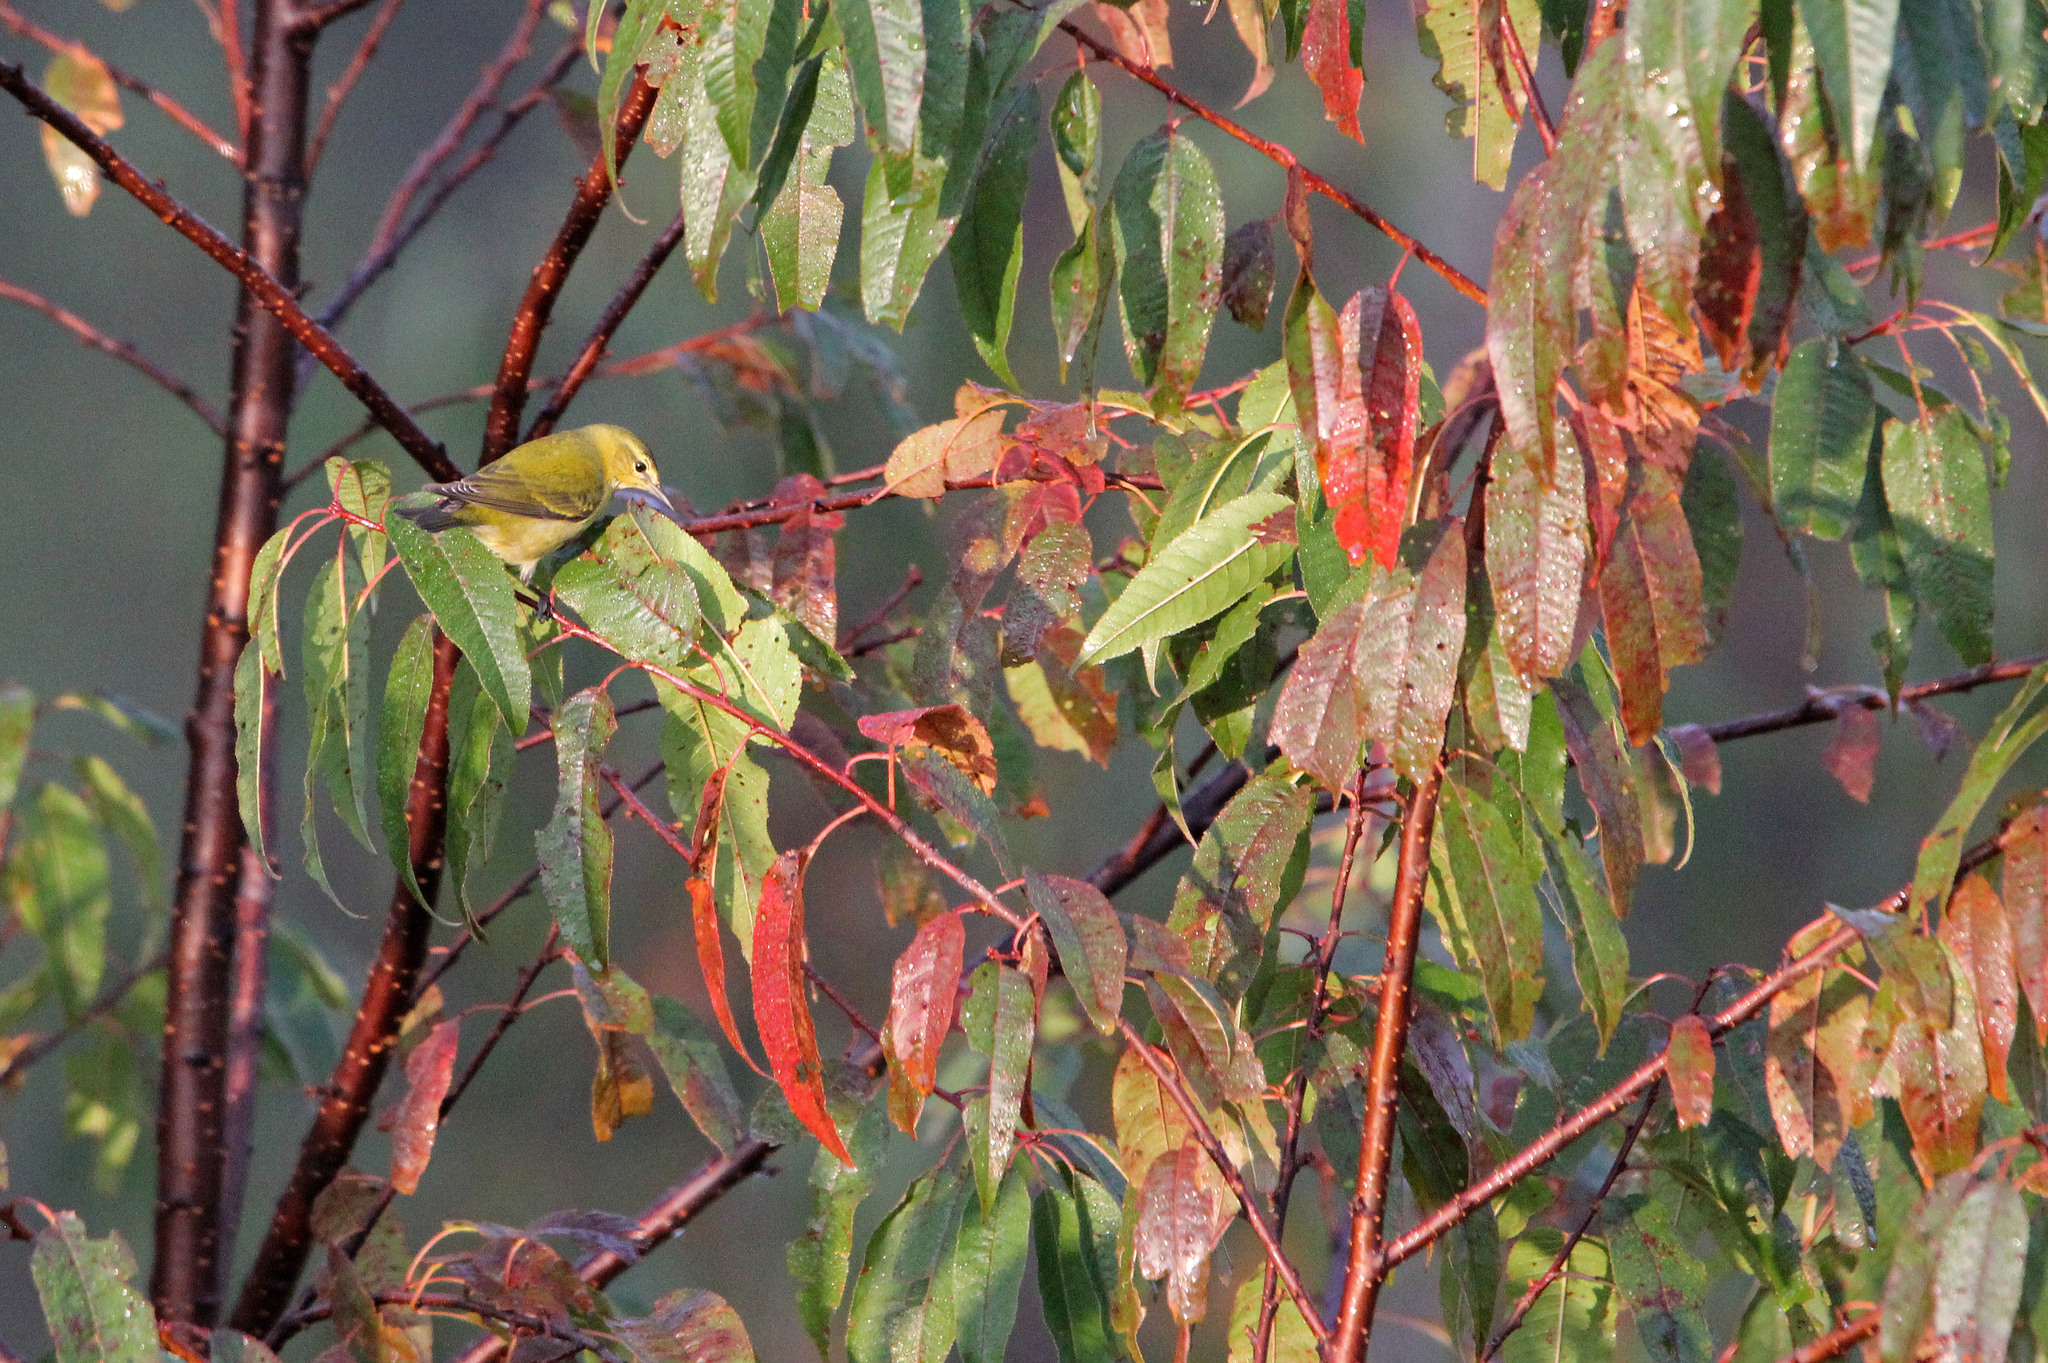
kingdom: Animalia
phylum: Chordata
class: Aves
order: Passeriformes
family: Parulidae
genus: Leiothlypis
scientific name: Leiothlypis peregrina
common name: Tennessee warbler
